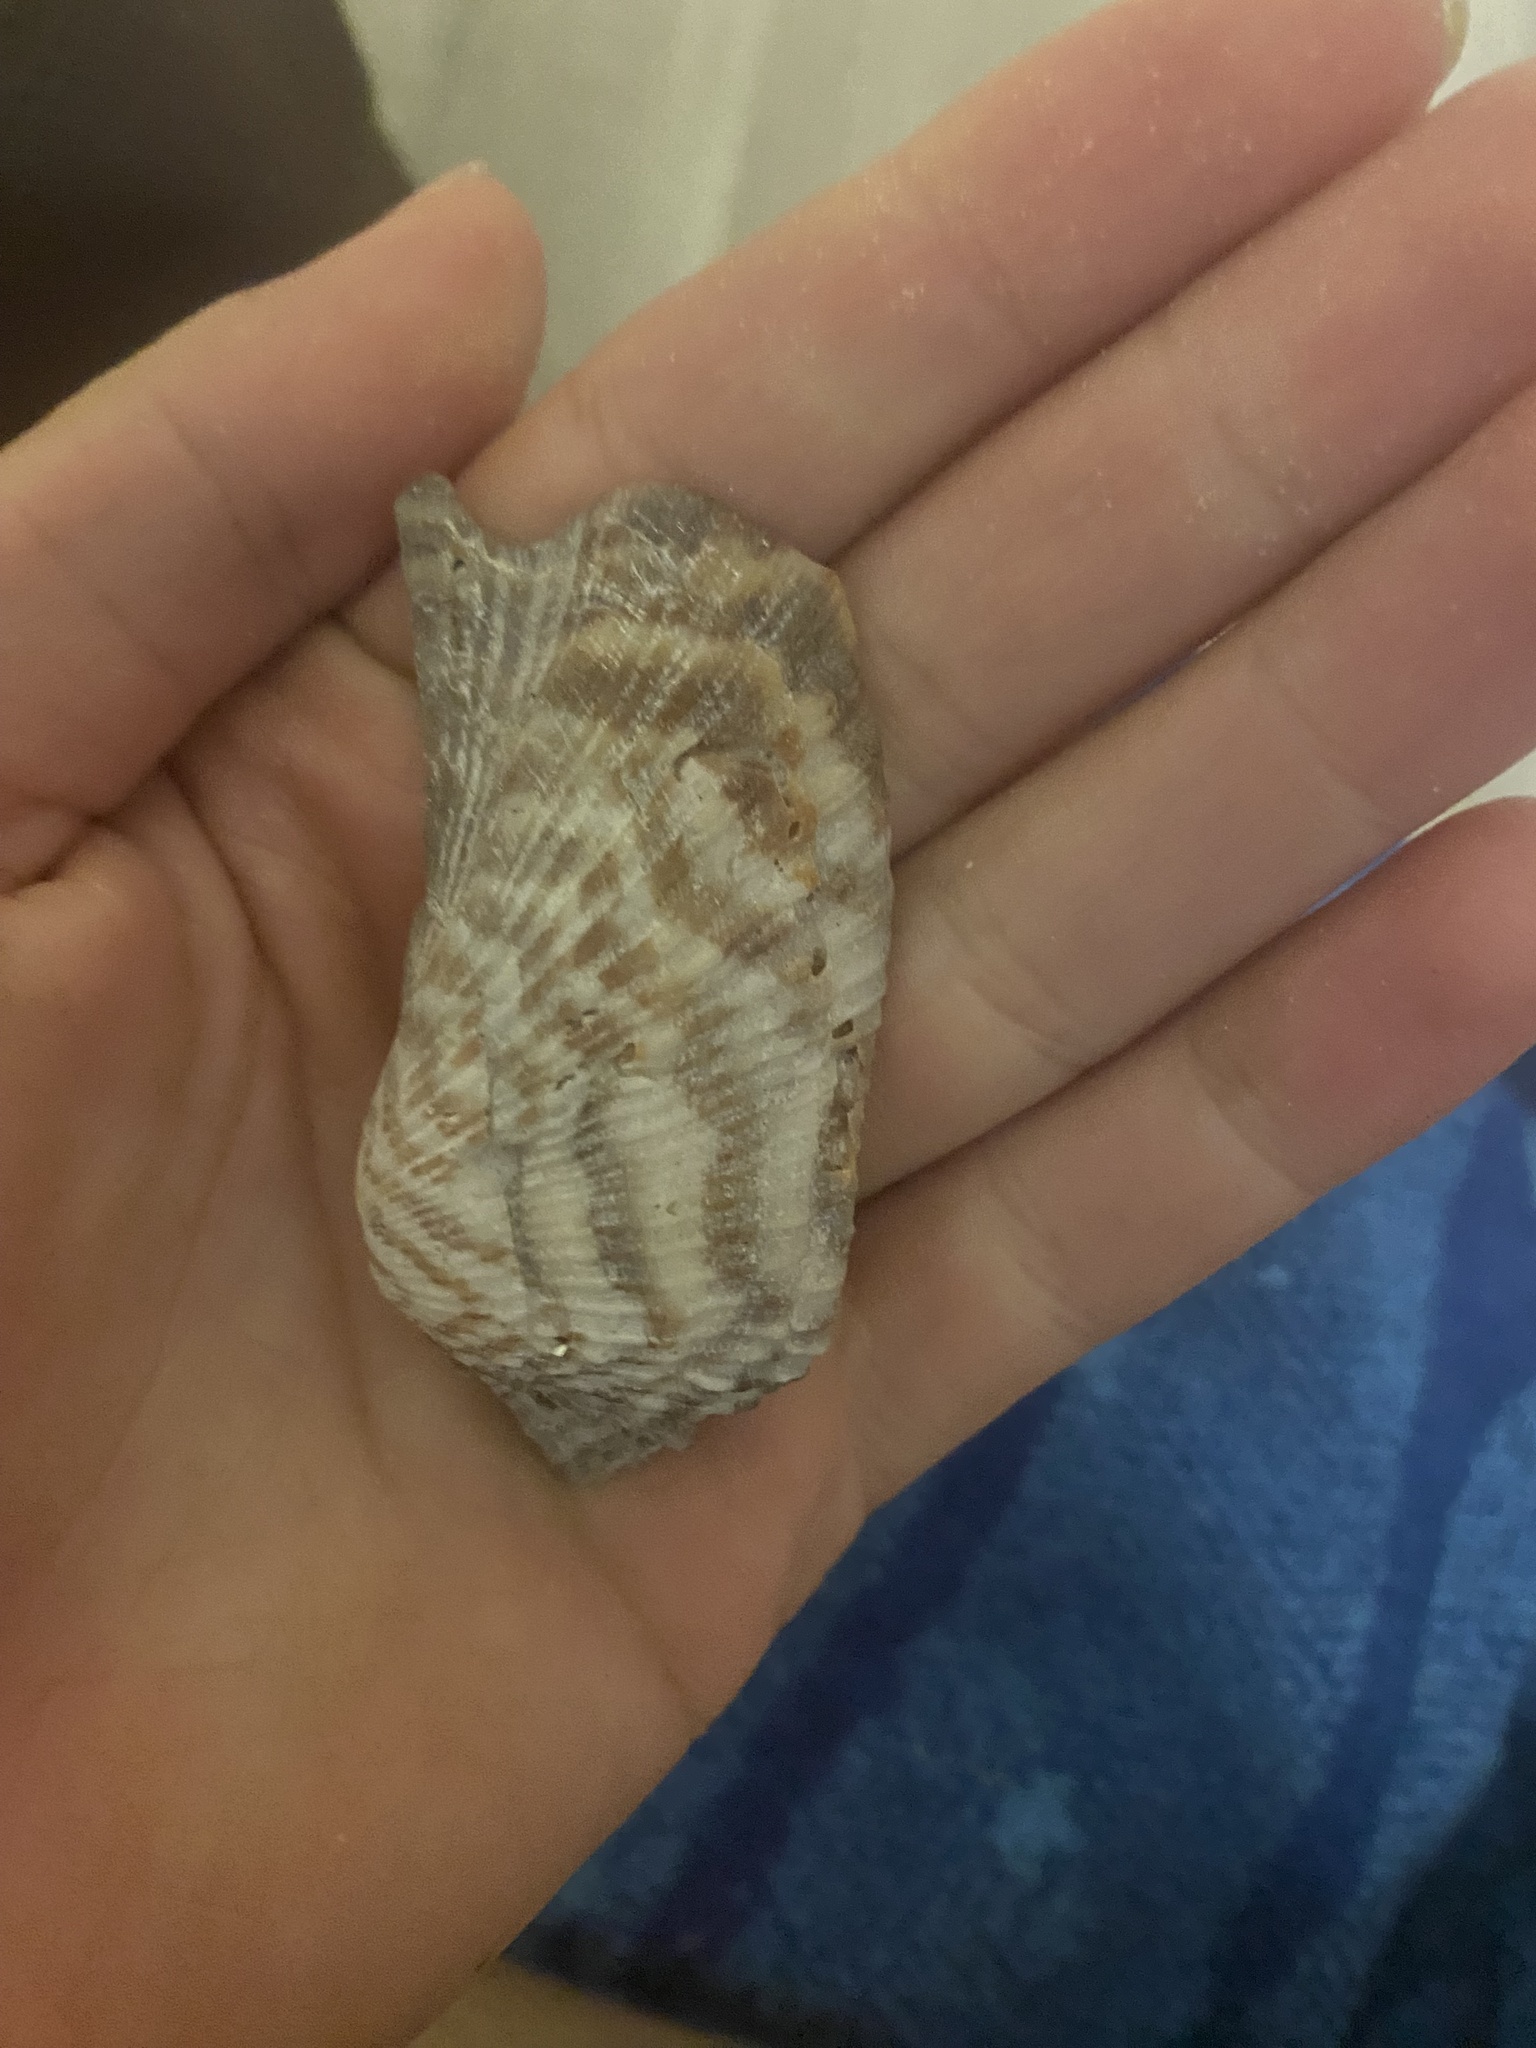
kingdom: Animalia
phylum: Mollusca
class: Bivalvia
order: Arcida
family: Arcidae
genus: Arca
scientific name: Arca zebra
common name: Atlantic turkey wing
